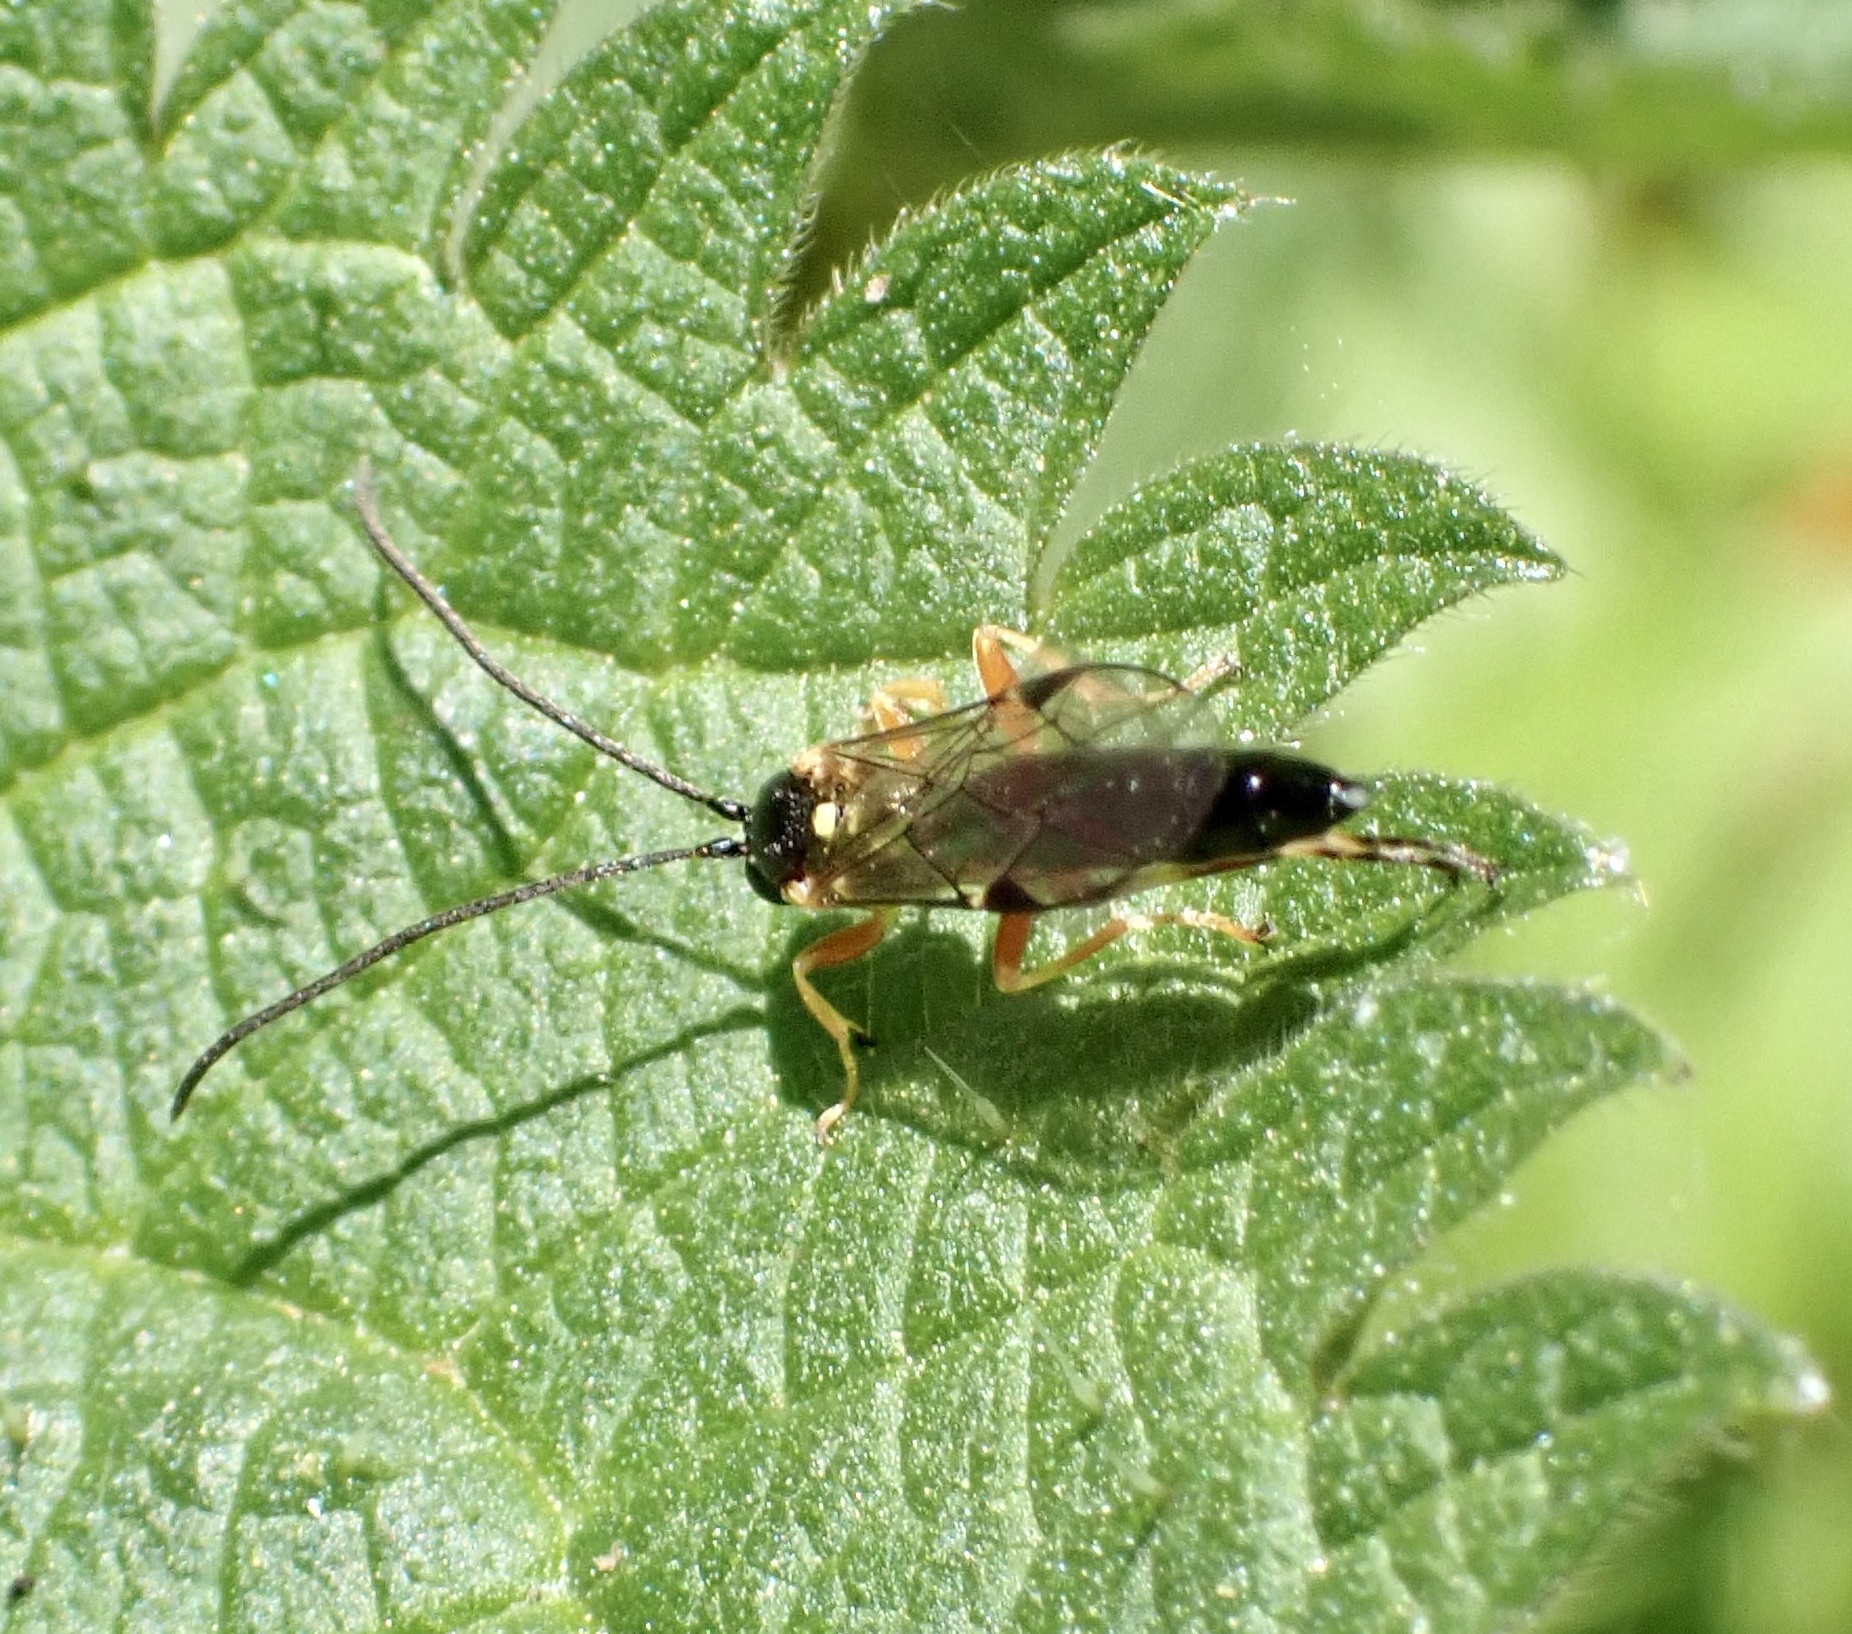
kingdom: Animalia
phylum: Arthropoda
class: Insecta
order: Hymenoptera
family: Ichneumonidae
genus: Apechthis
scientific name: Apechthis quadridentata
